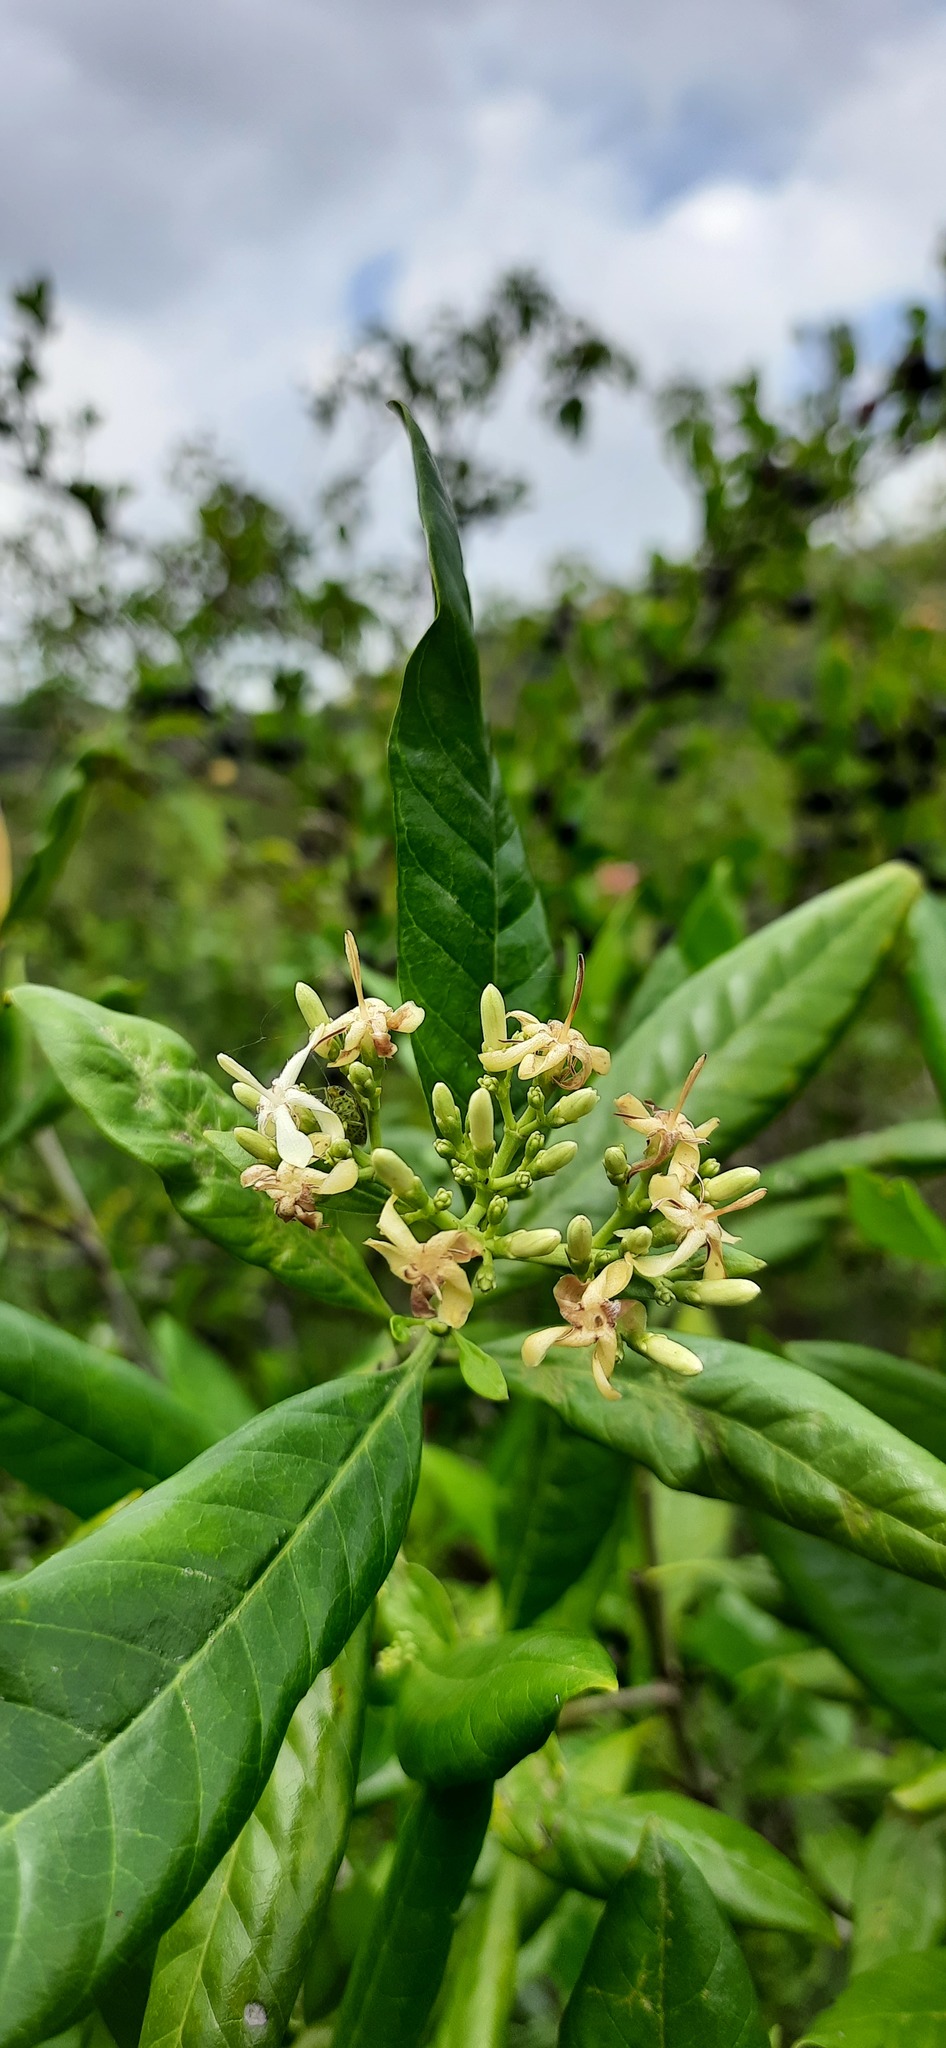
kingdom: Plantae
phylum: Tracheophyta
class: Magnoliopsida
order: Gentianales
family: Rubiaceae
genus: Tarenna
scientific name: Tarenna asiatica
